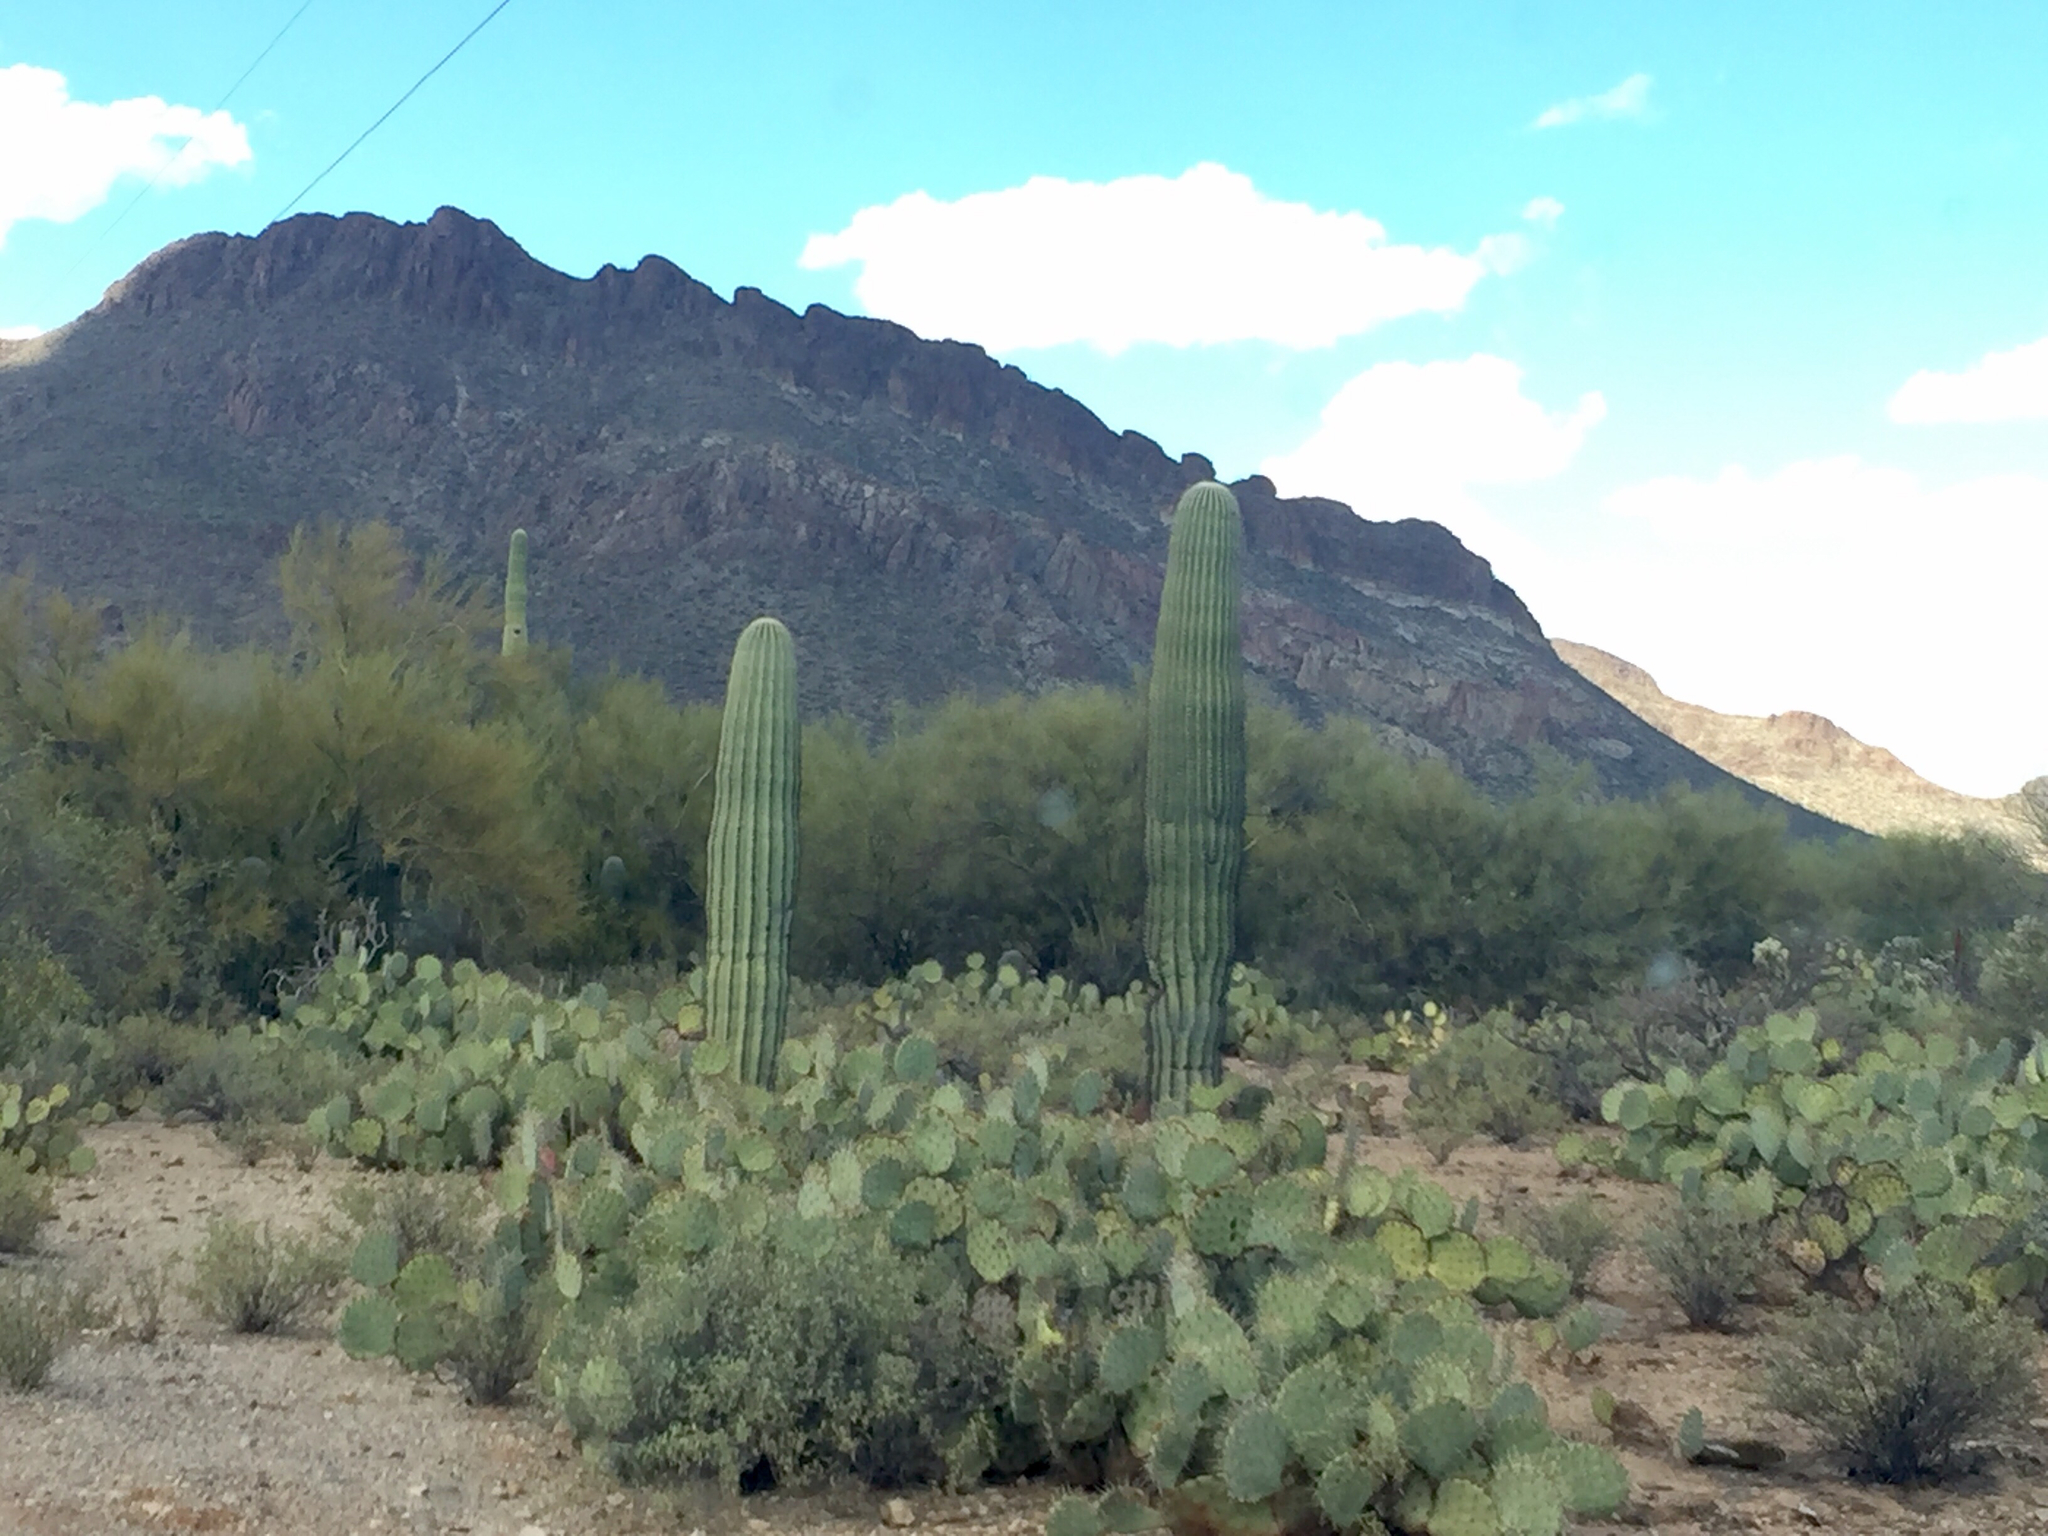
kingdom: Plantae
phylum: Tracheophyta
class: Magnoliopsida
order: Caryophyllales
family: Cactaceae
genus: Carnegiea
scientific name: Carnegiea gigantea
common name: Saguaro
